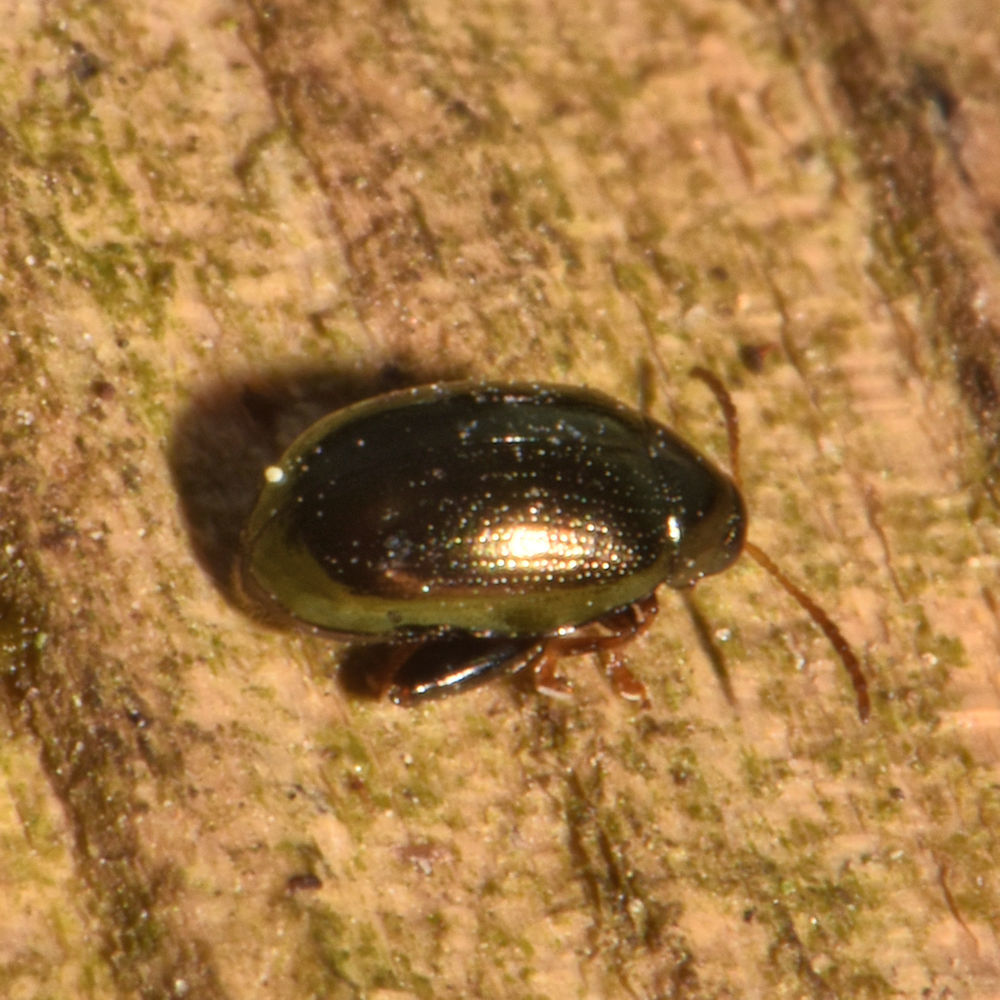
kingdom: Animalia
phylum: Arthropoda
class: Insecta
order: Coleoptera
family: Chrysomelidae
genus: Dibolia
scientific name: Dibolia borealis
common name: Northern plantain flea beetle
